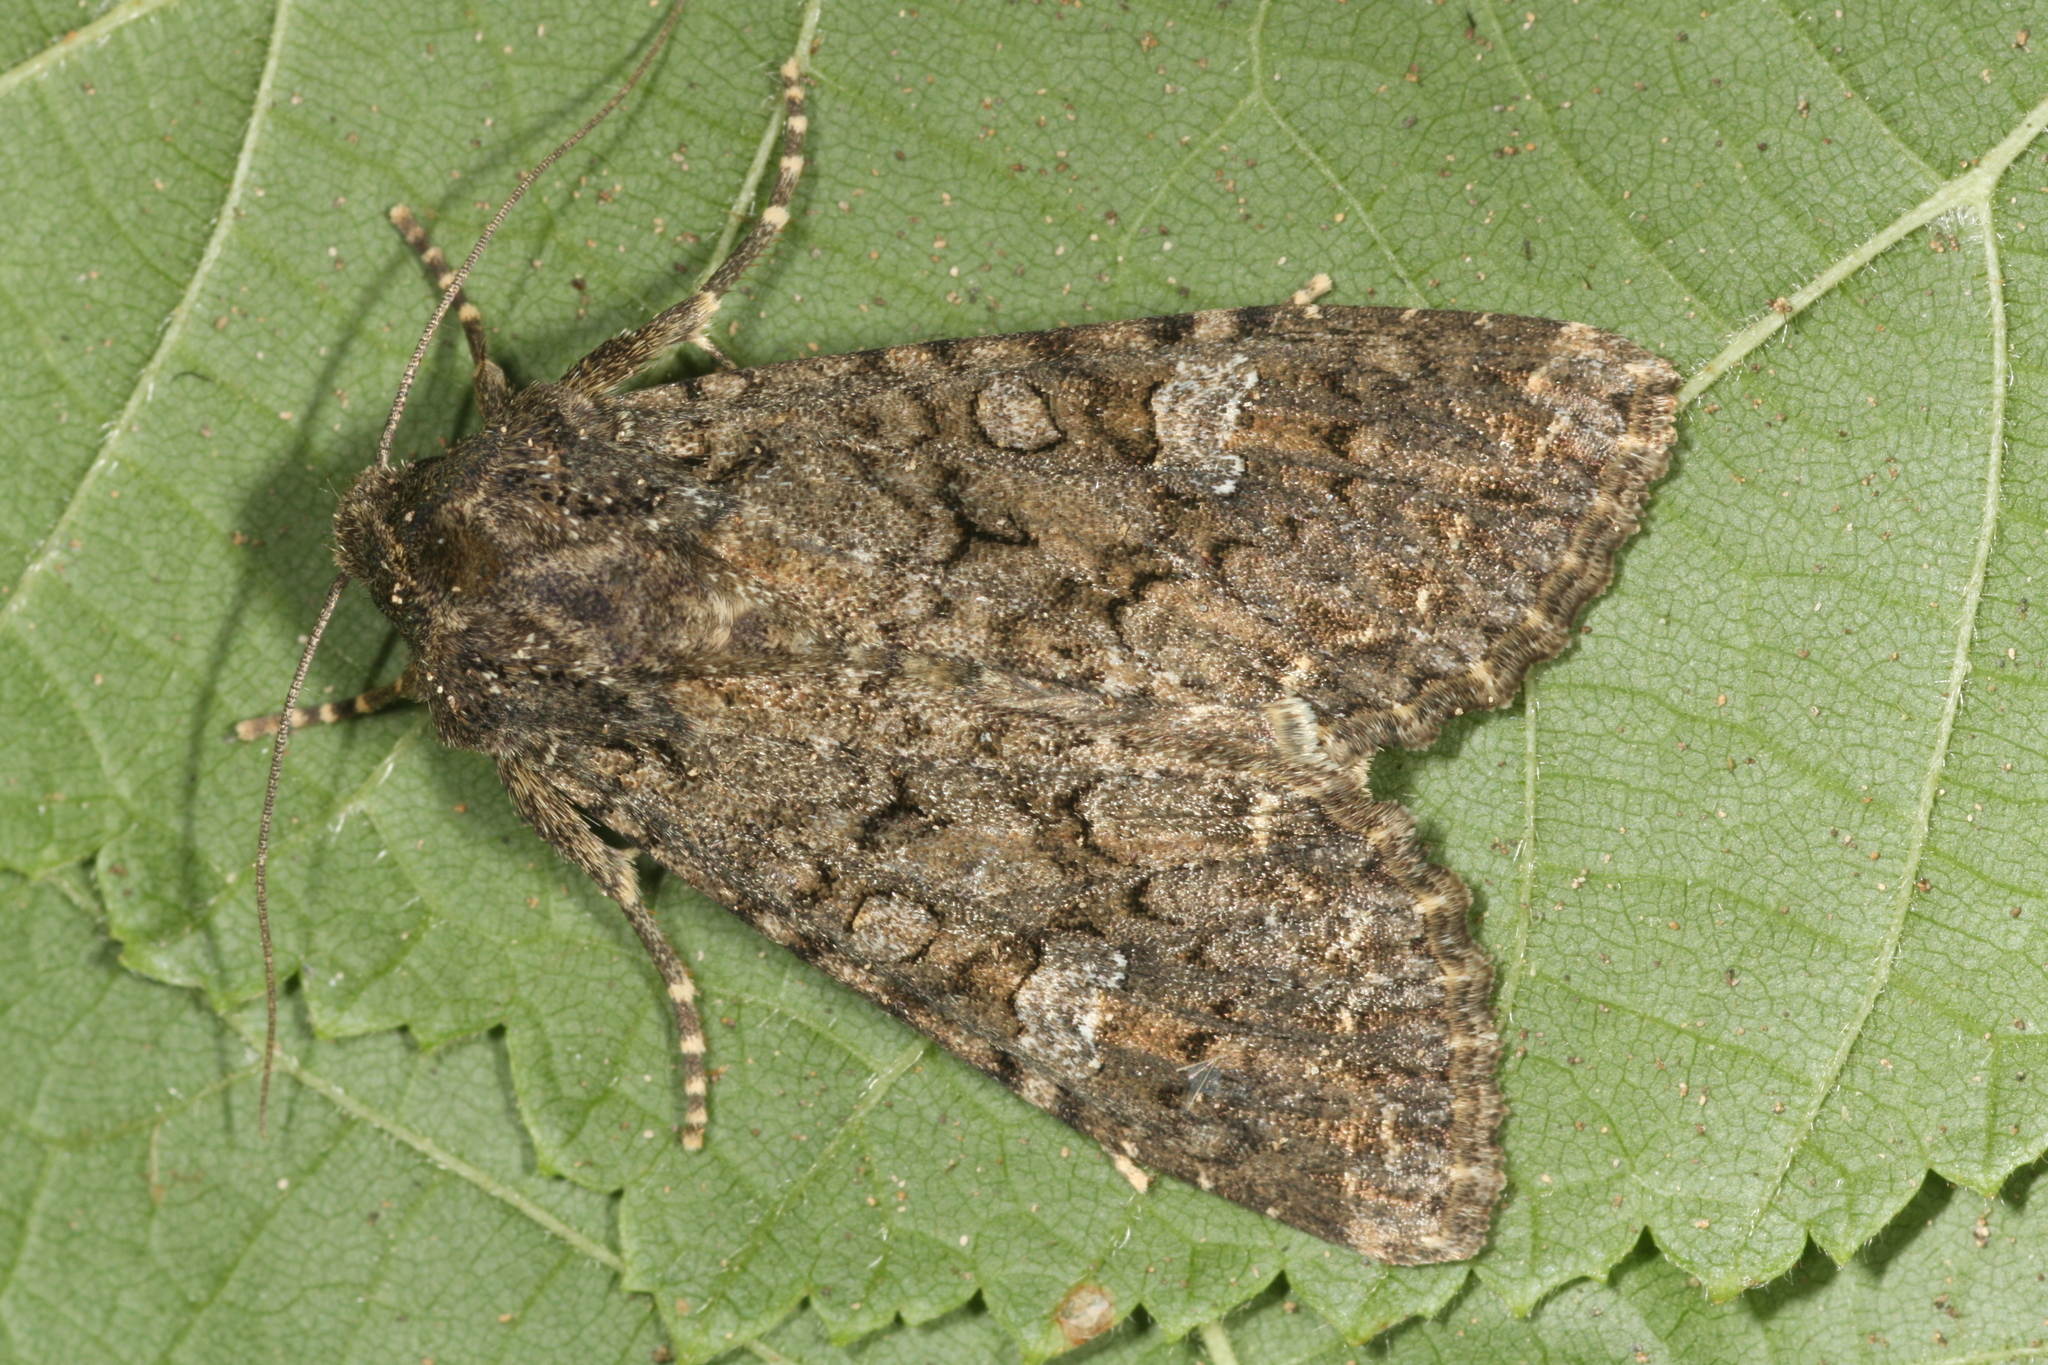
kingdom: Animalia
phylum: Arthropoda
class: Insecta
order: Lepidoptera
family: Noctuidae
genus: Mamestra
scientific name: Mamestra brassicae
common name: Cabbage moth
